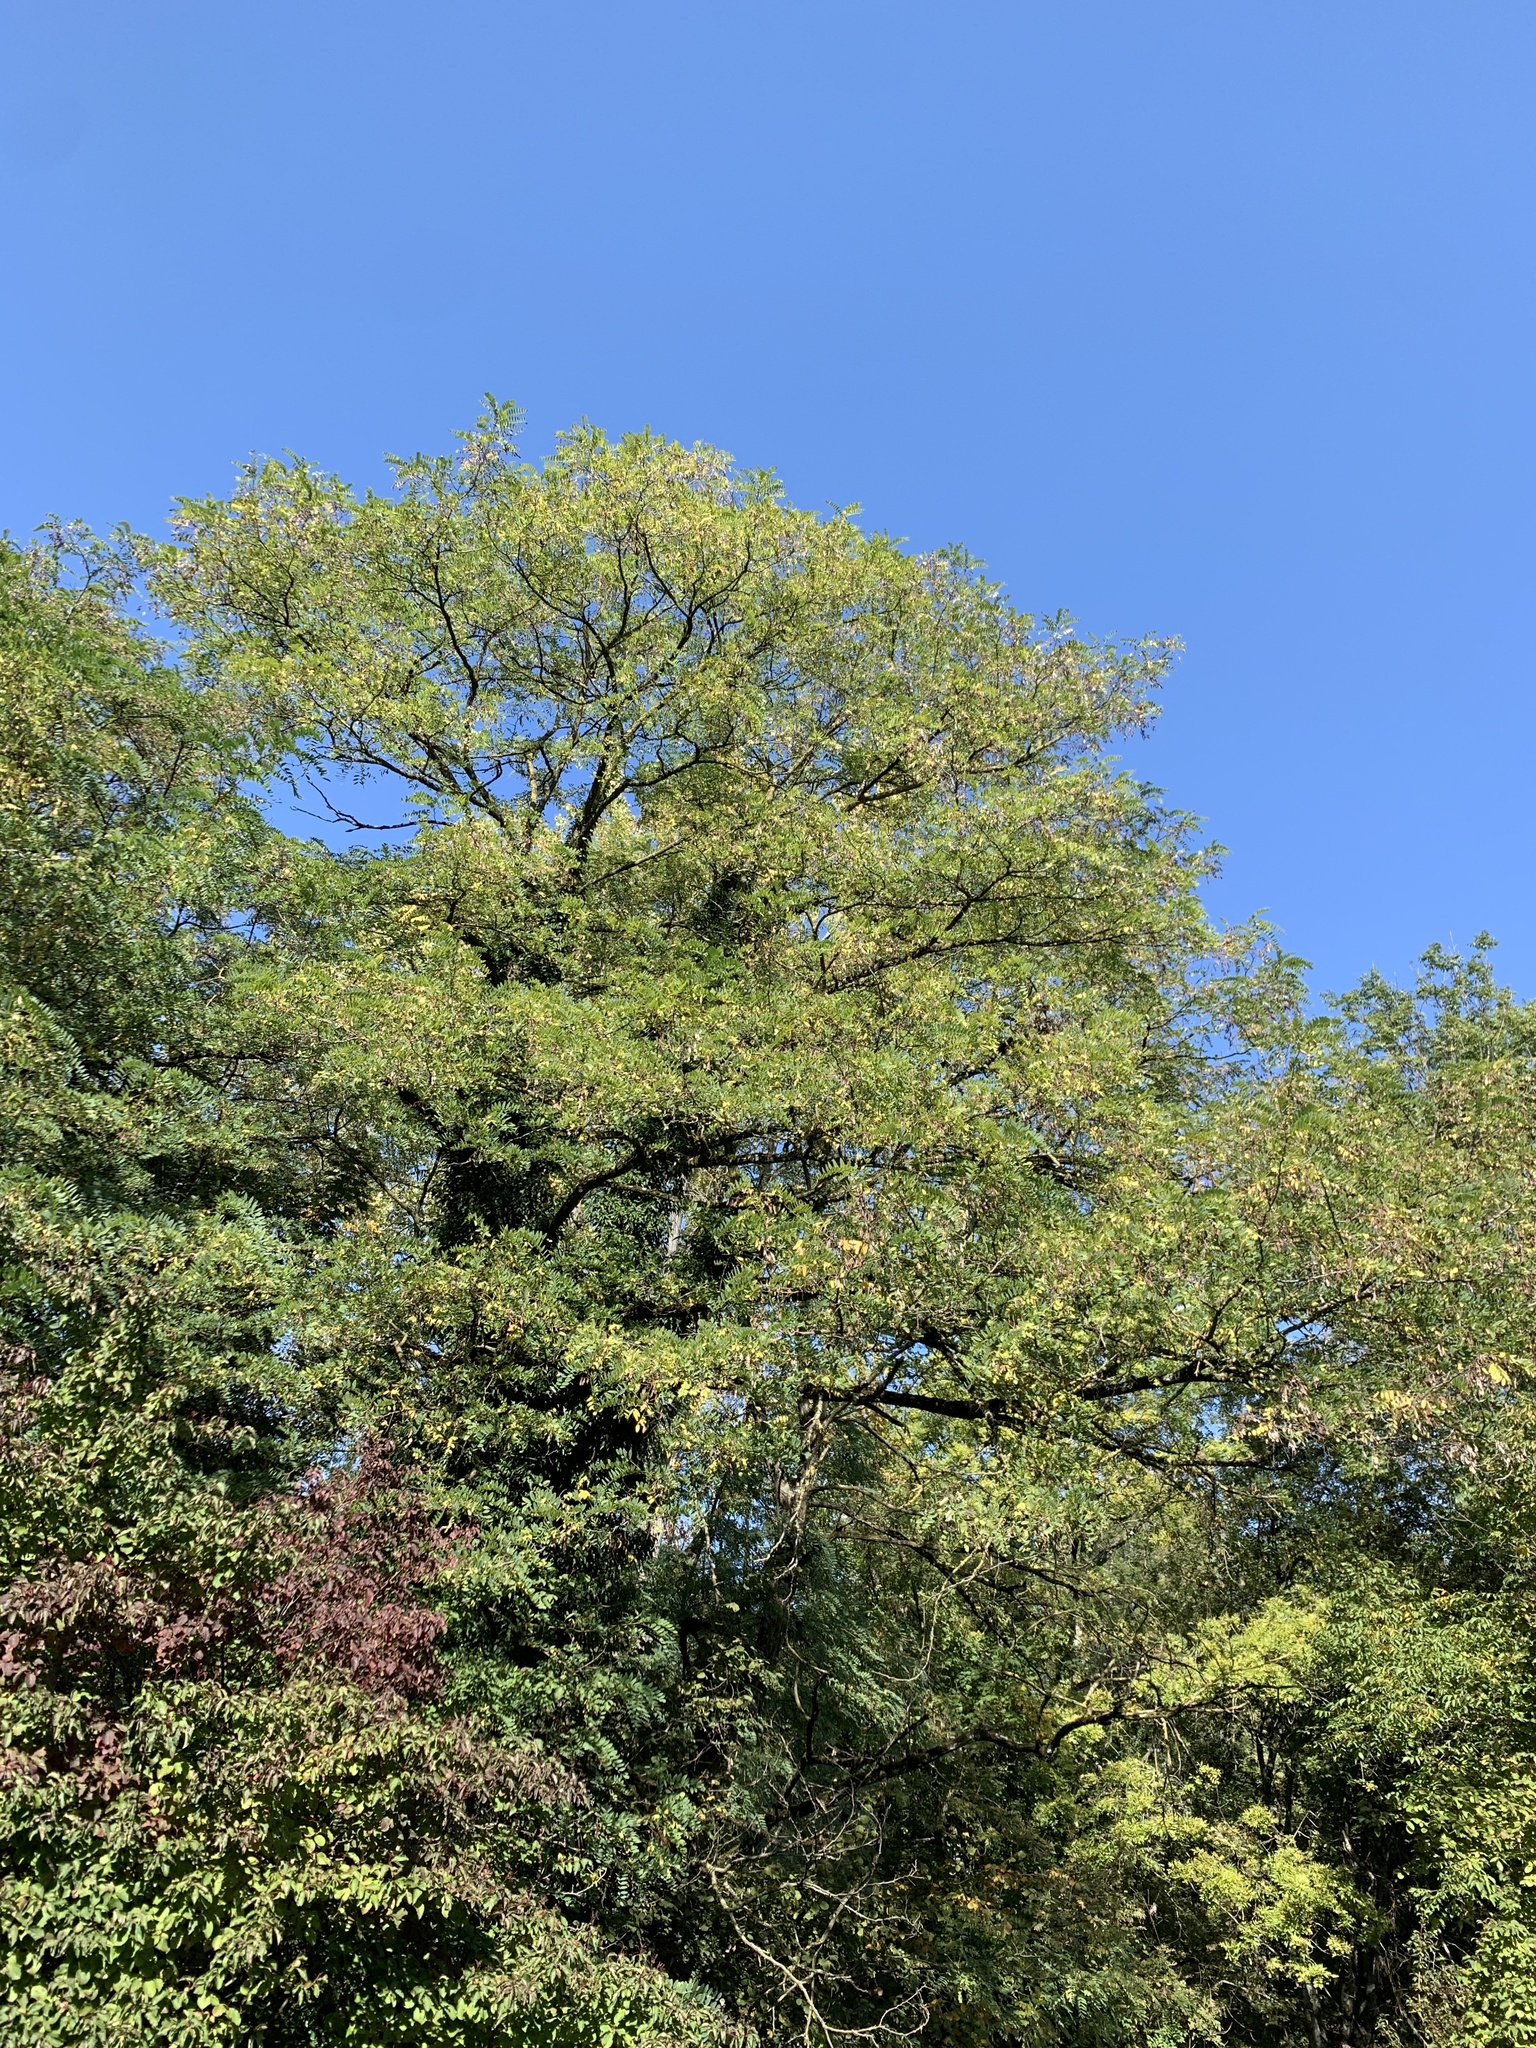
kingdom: Plantae
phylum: Tracheophyta
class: Magnoliopsida
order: Fabales
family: Fabaceae
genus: Robinia
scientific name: Robinia pseudoacacia
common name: Black locust
